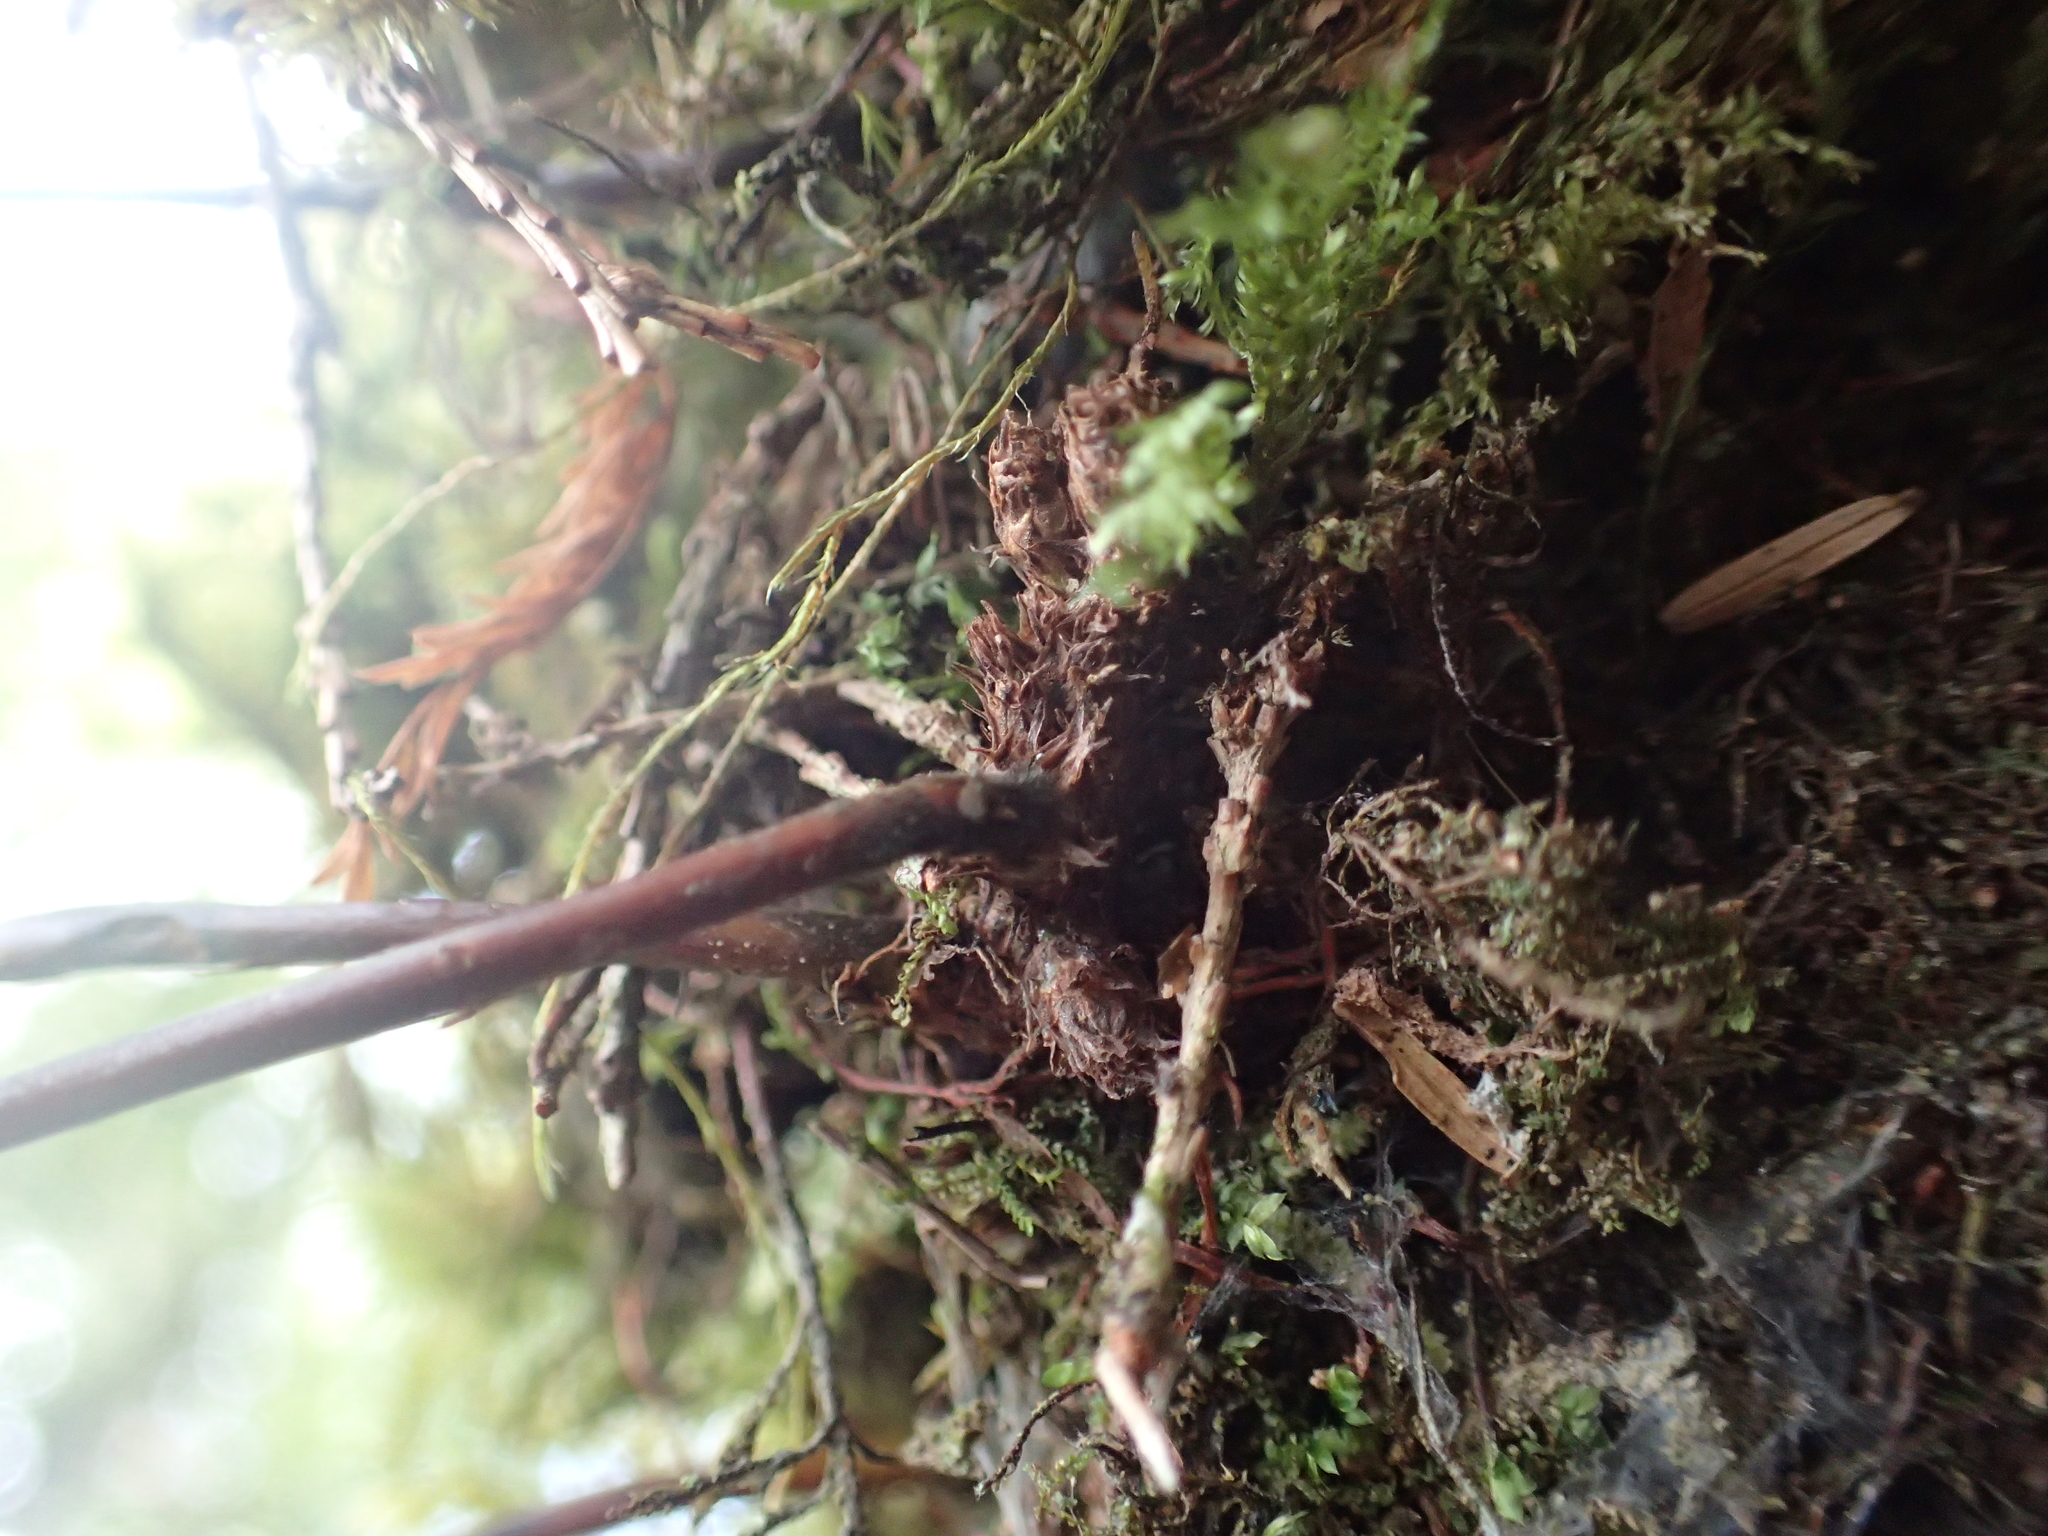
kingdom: Plantae
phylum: Tracheophyta
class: Polypodiopsida
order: Polypodiales
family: Polypodiaceae
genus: Lepisorus
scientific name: Lepisorus obscurevenulosus
